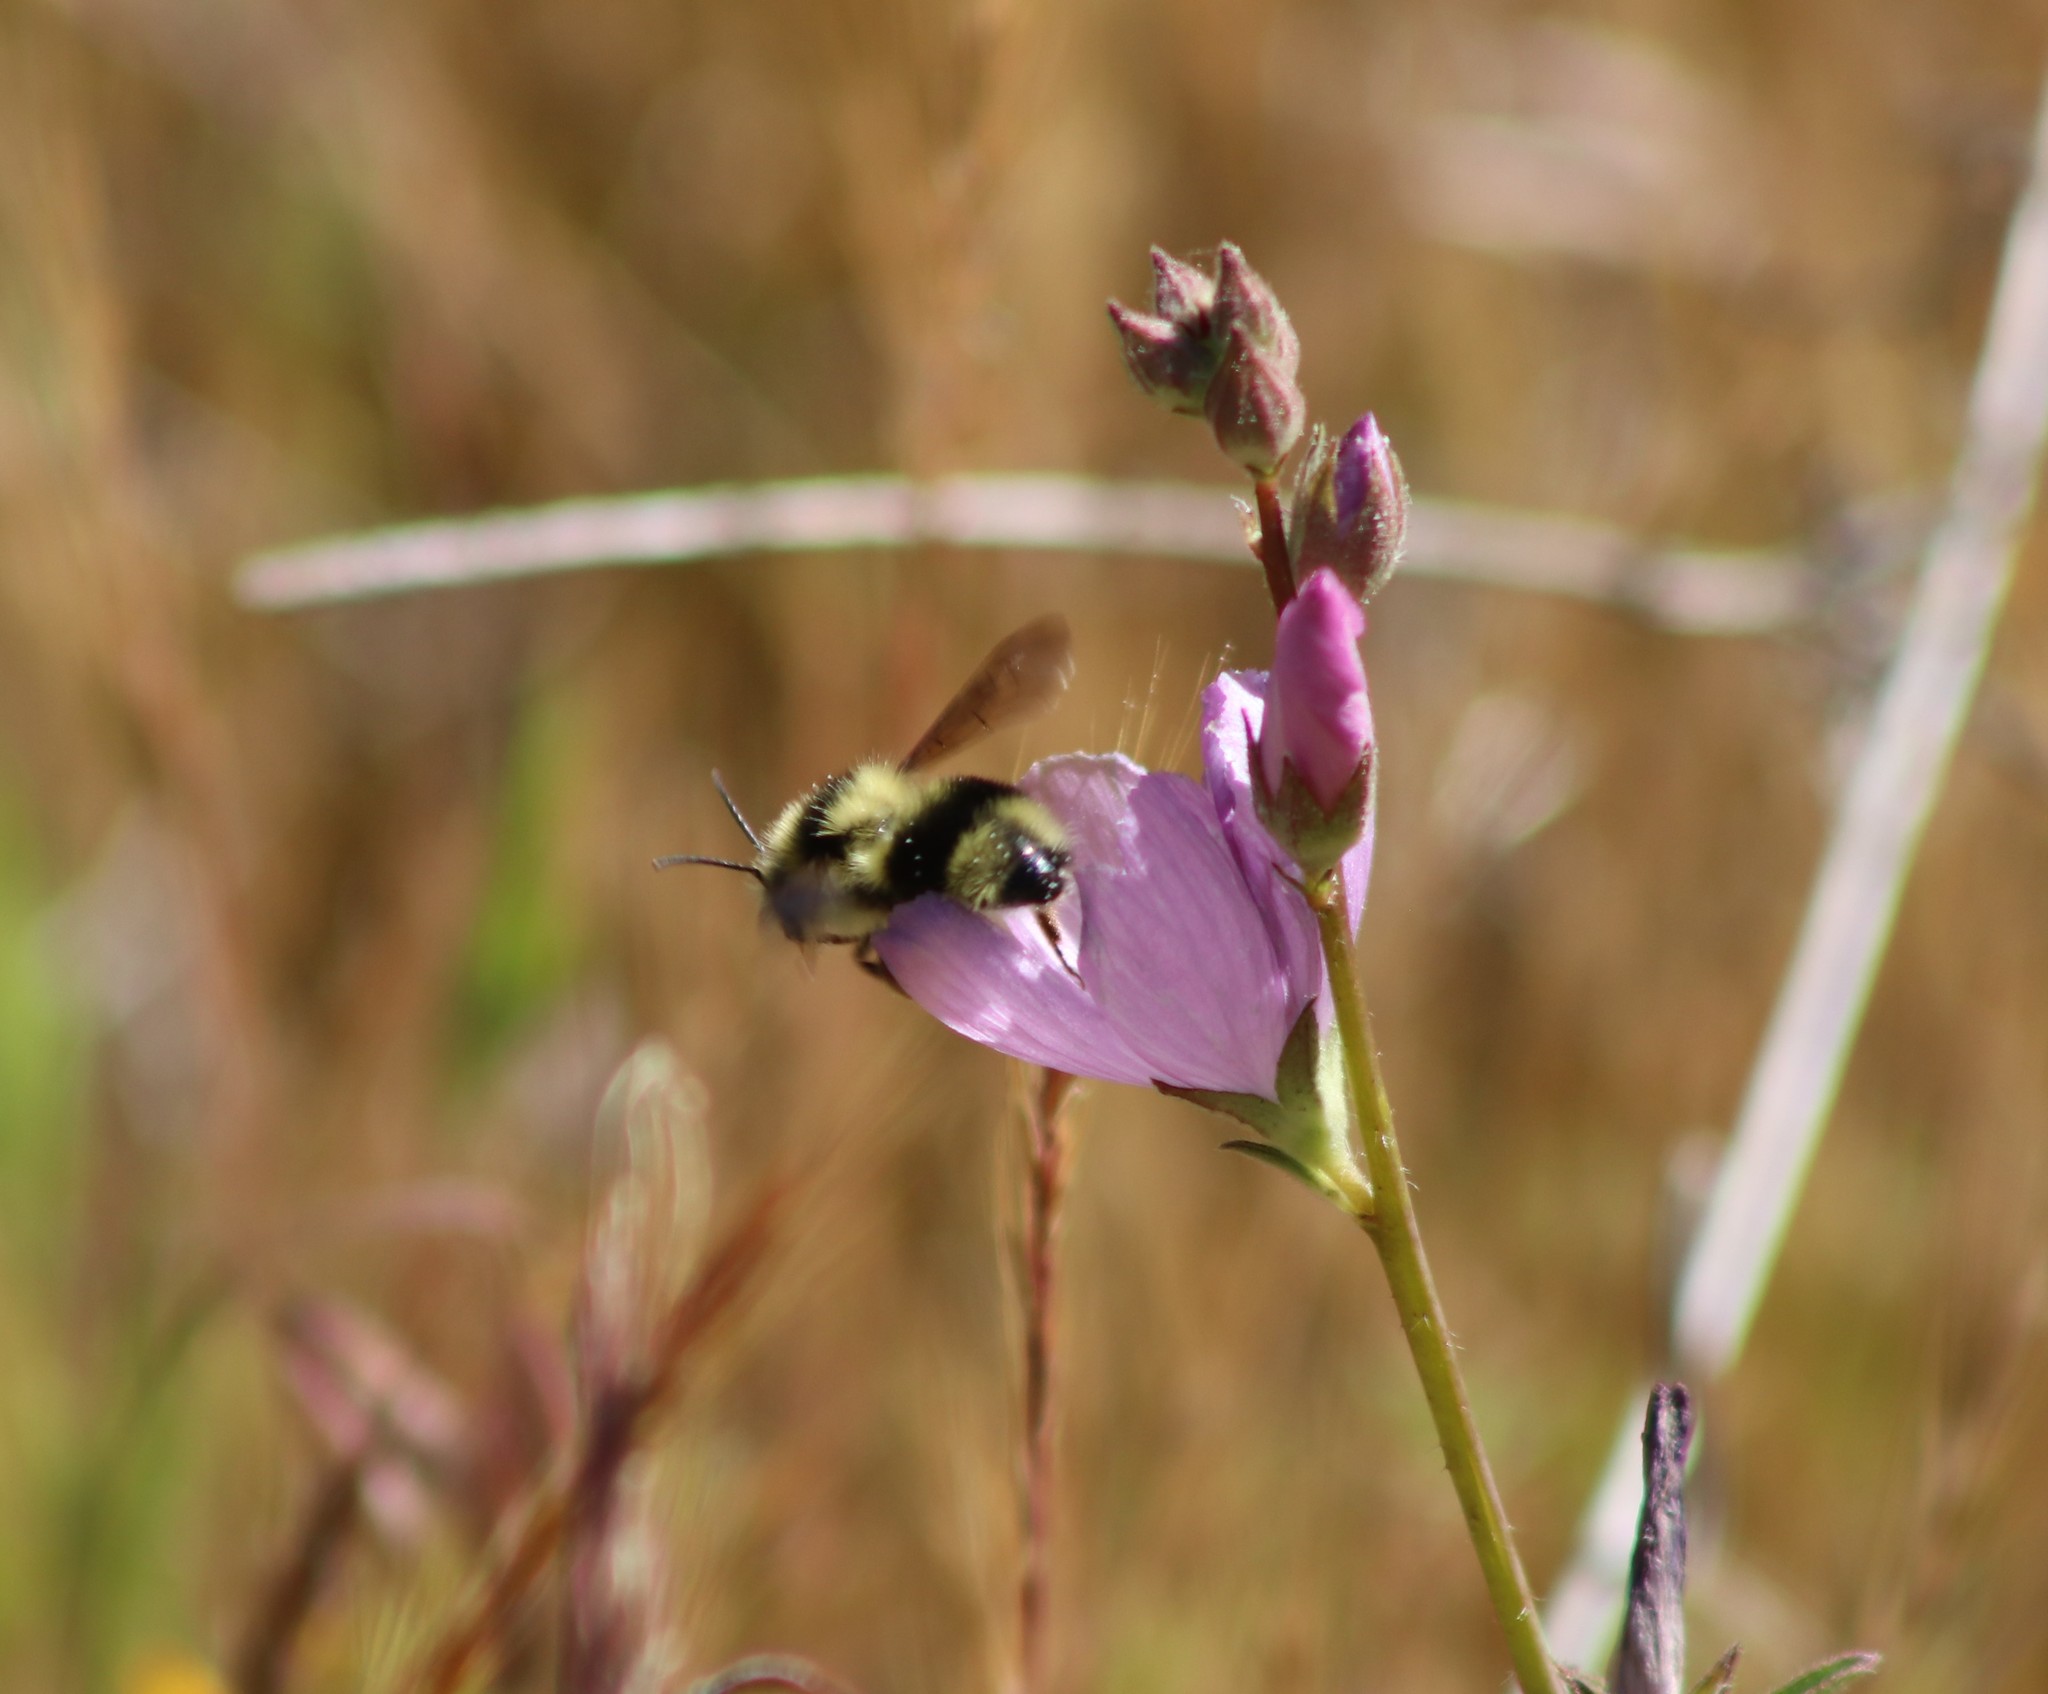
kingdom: Animalia
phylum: Arthropoda
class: Insecta
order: Hymenoptera
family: Apidae
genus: Bombus
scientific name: Bombus melanopygus
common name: Black tail bumble bee
